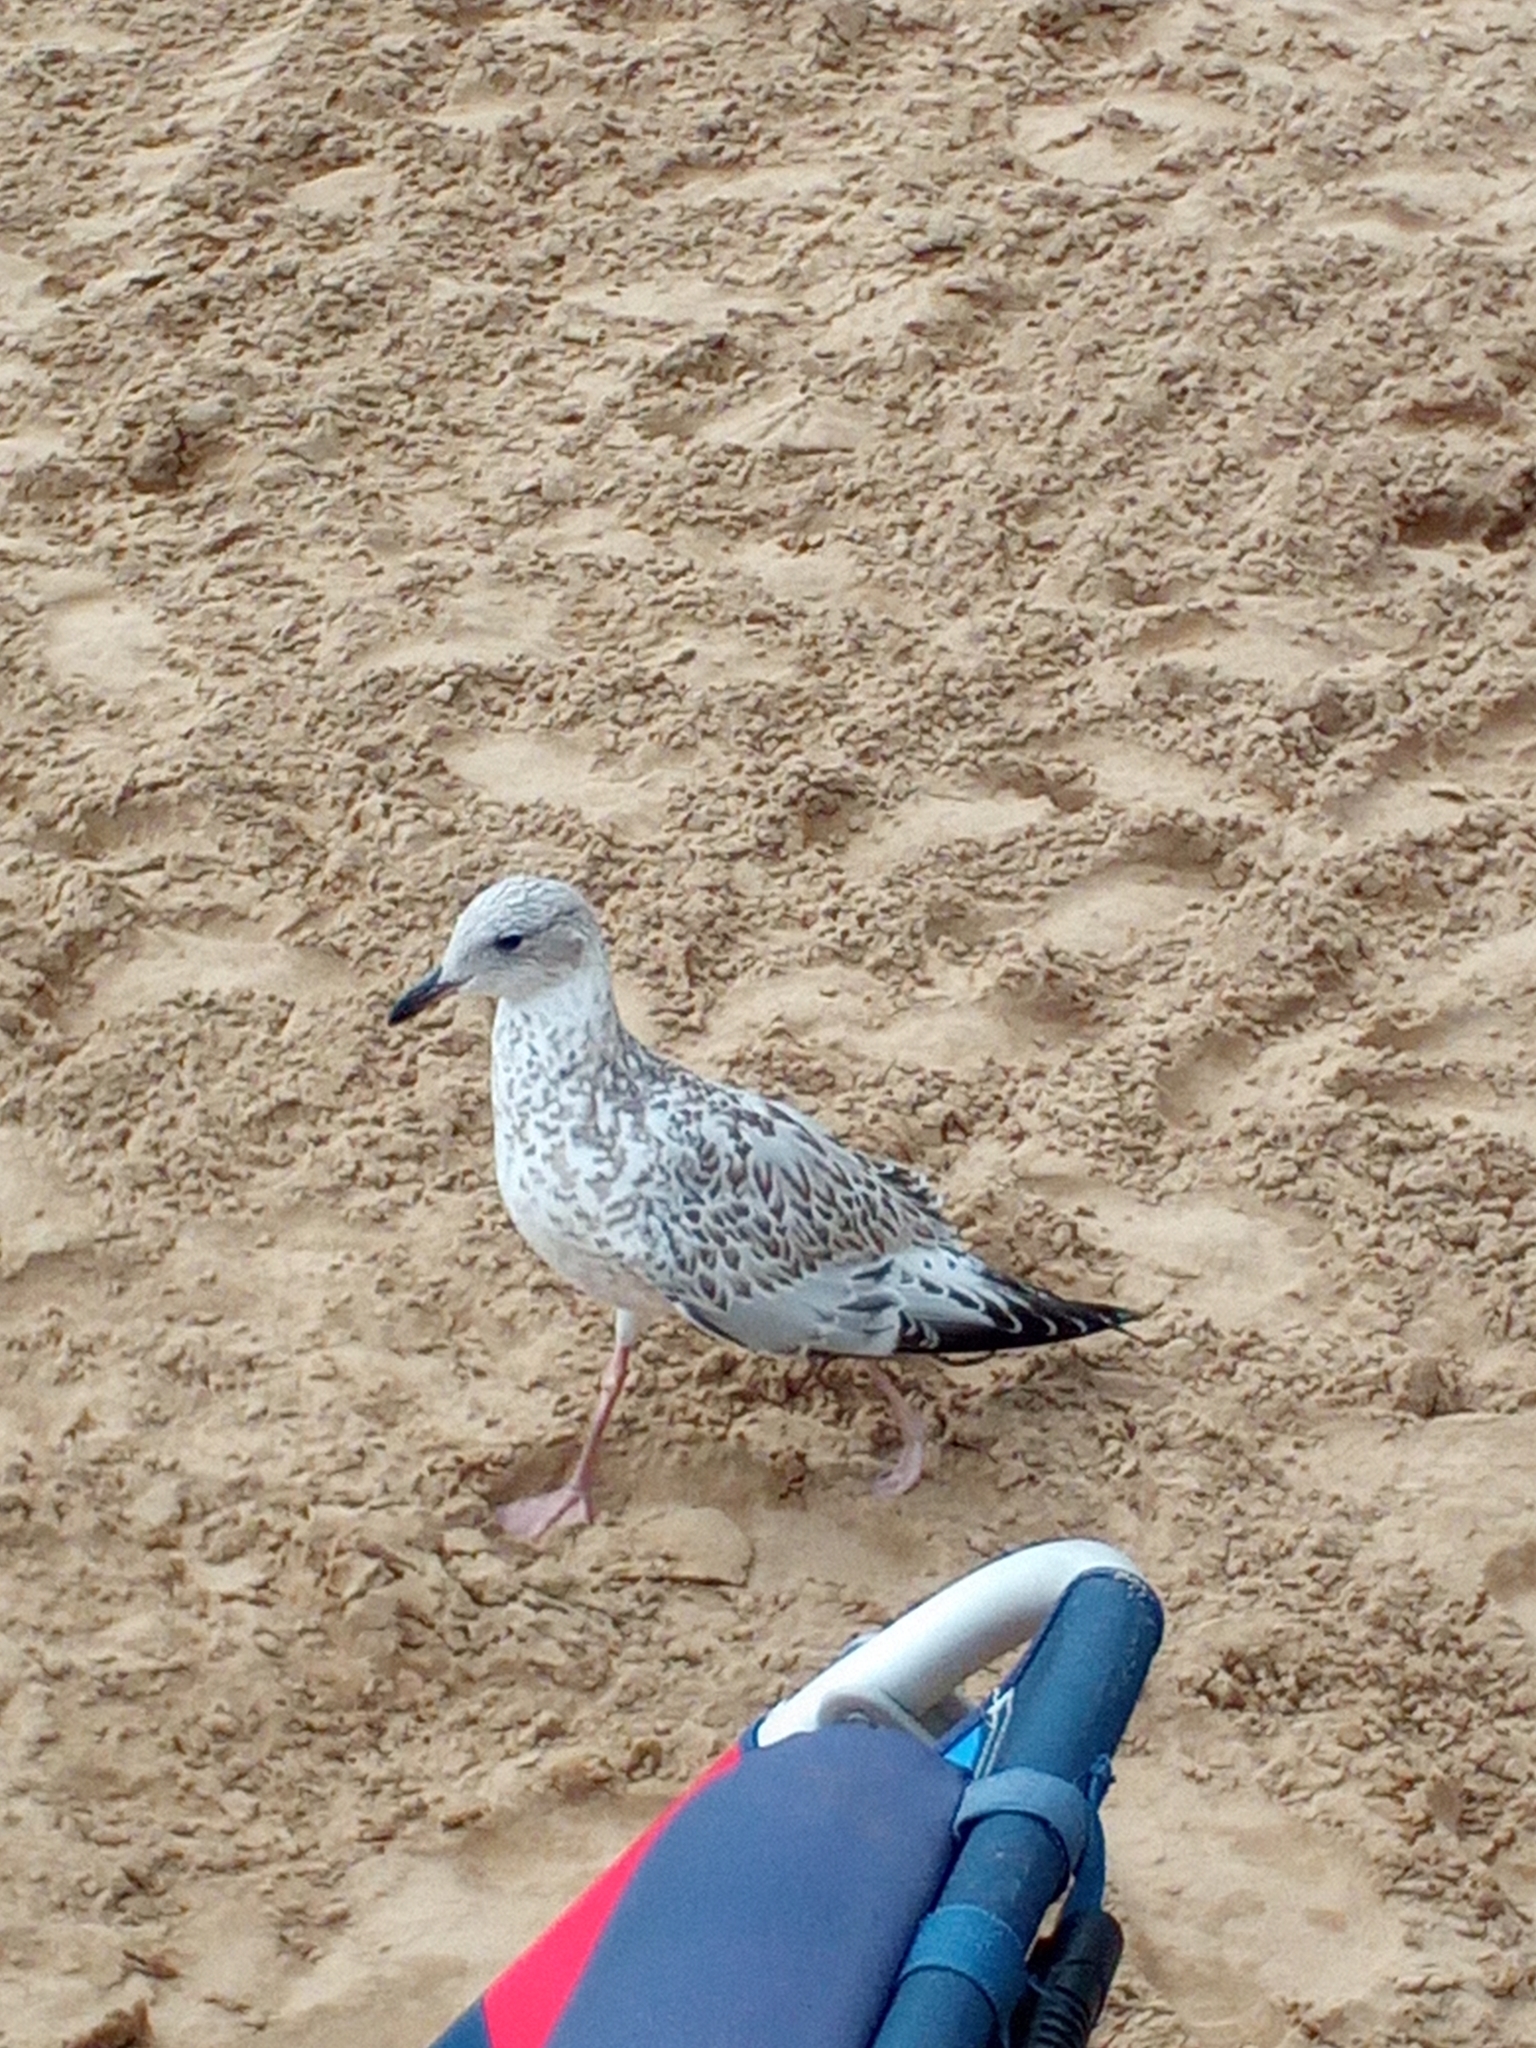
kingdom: Animalia
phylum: Chordata
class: Aves
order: Charadriiformes
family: Laridae
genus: Larus
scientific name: Larus delawarensis
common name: Ring-billed gull
